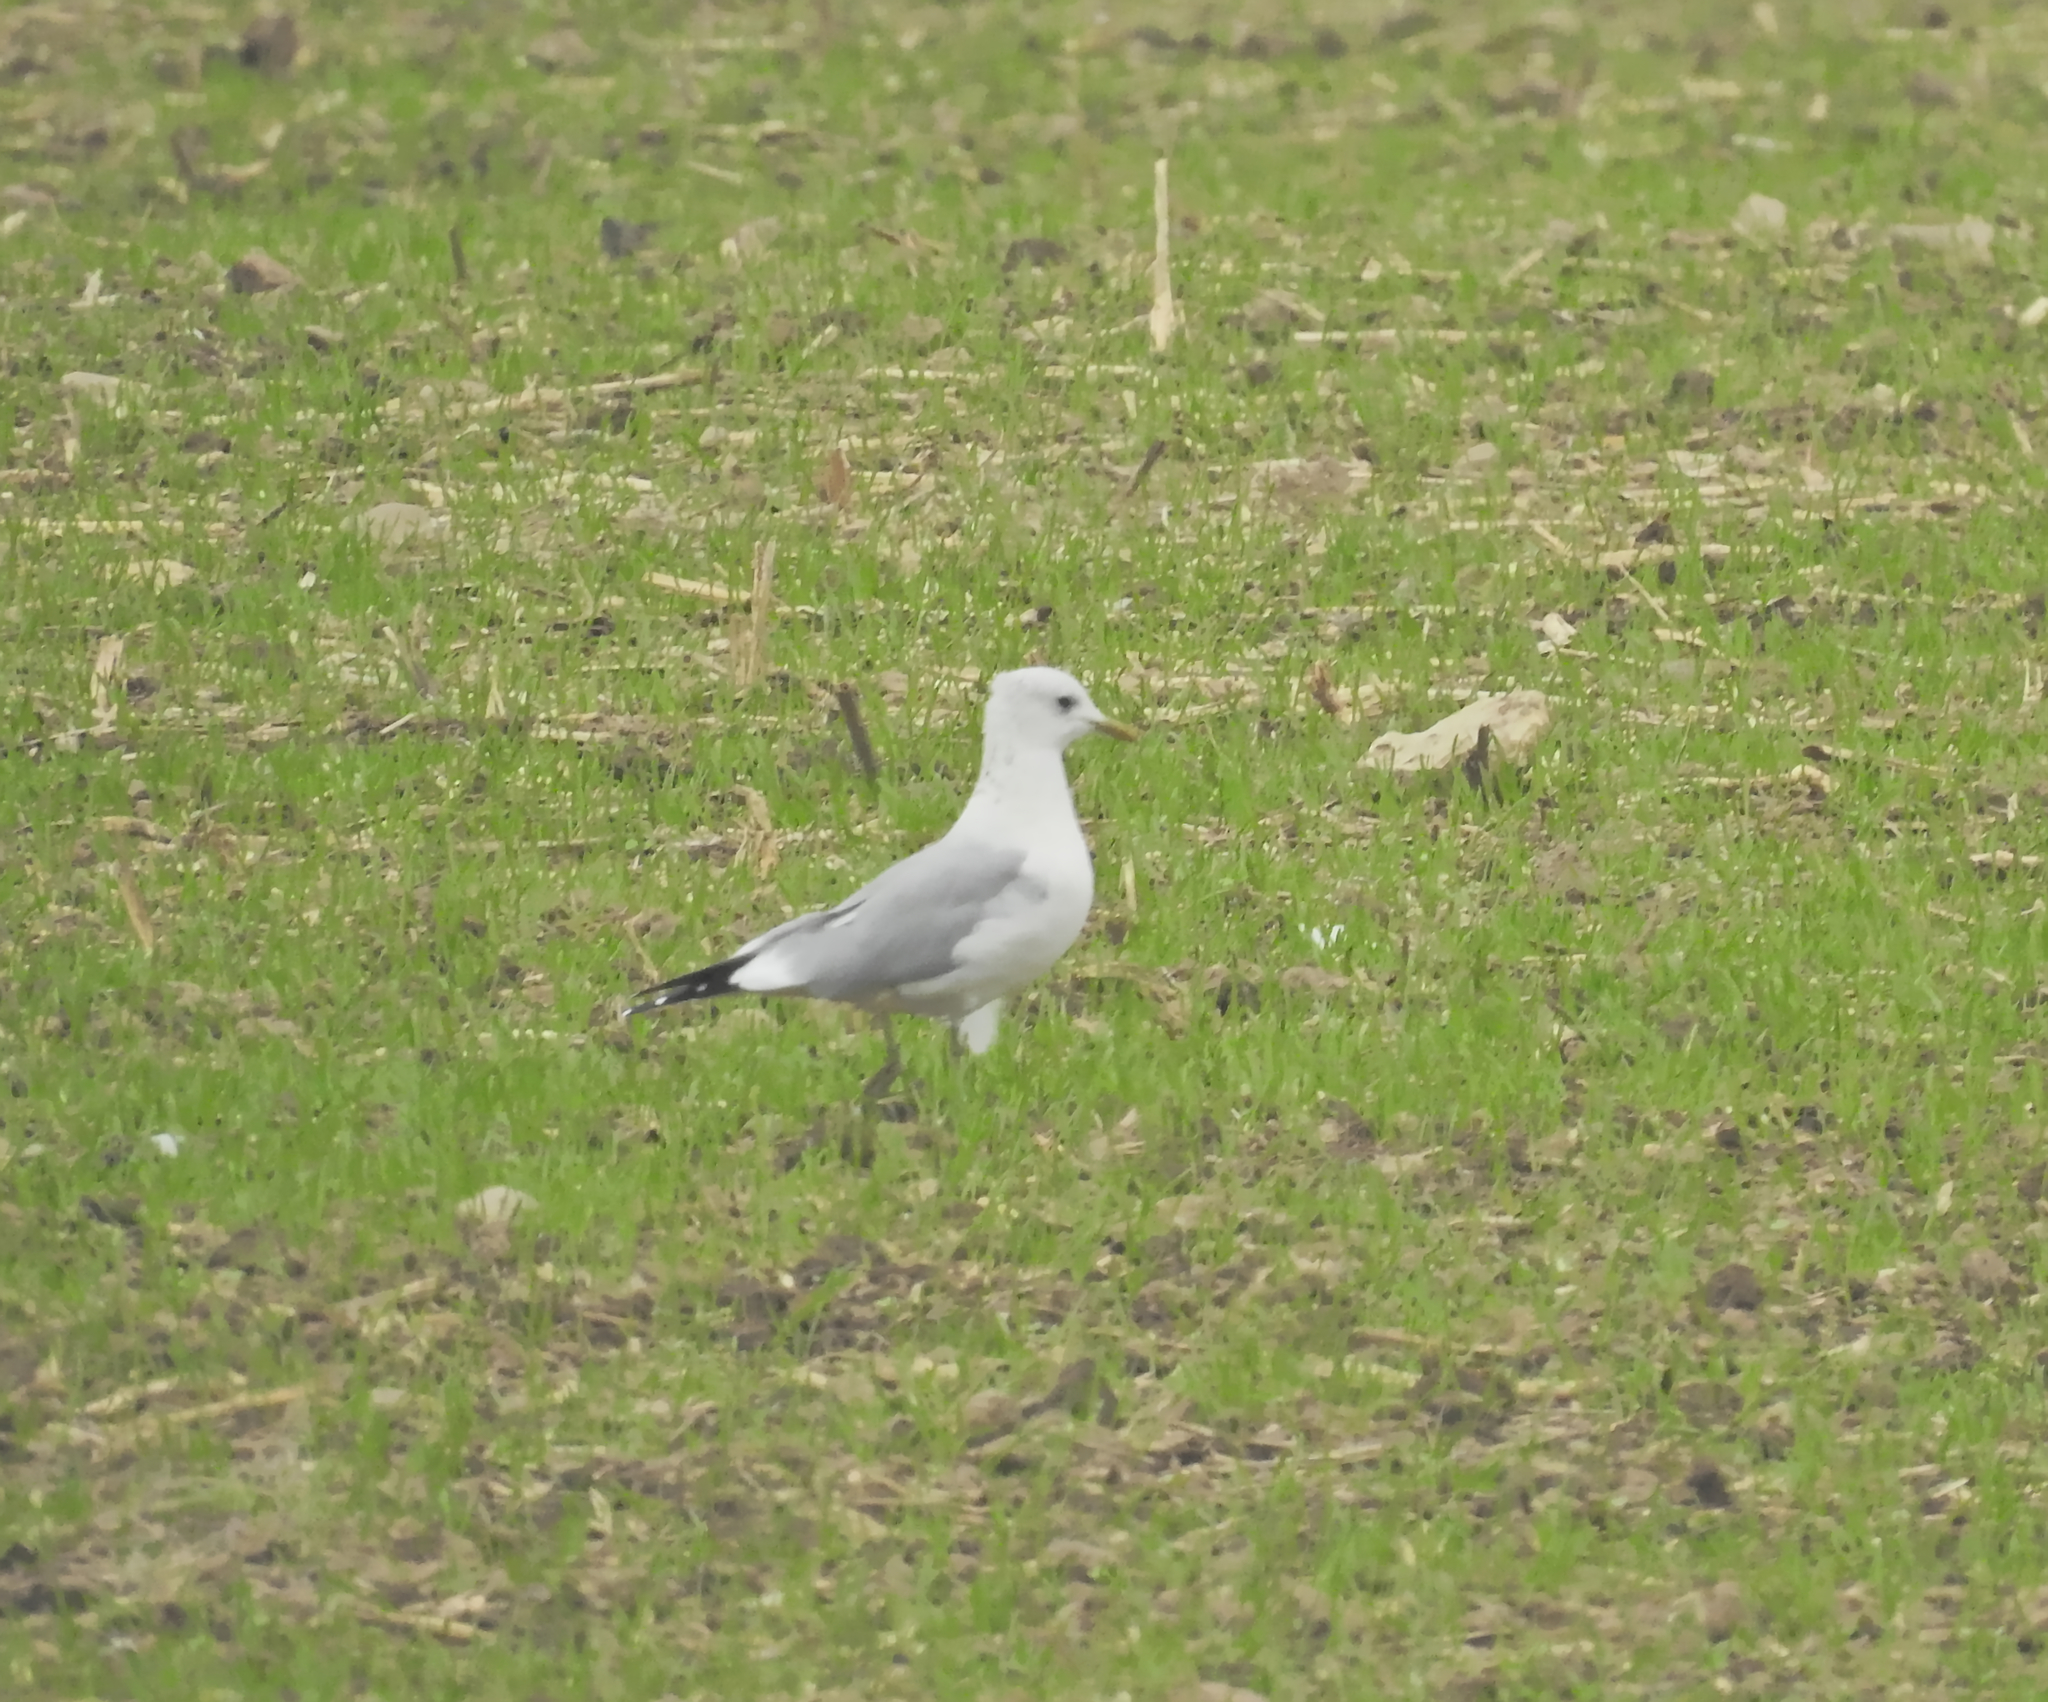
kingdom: Animalia
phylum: Chordata
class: Aves
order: Charadriiformes
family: Laridae
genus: Larus
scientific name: Larus canus
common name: Mew gull
